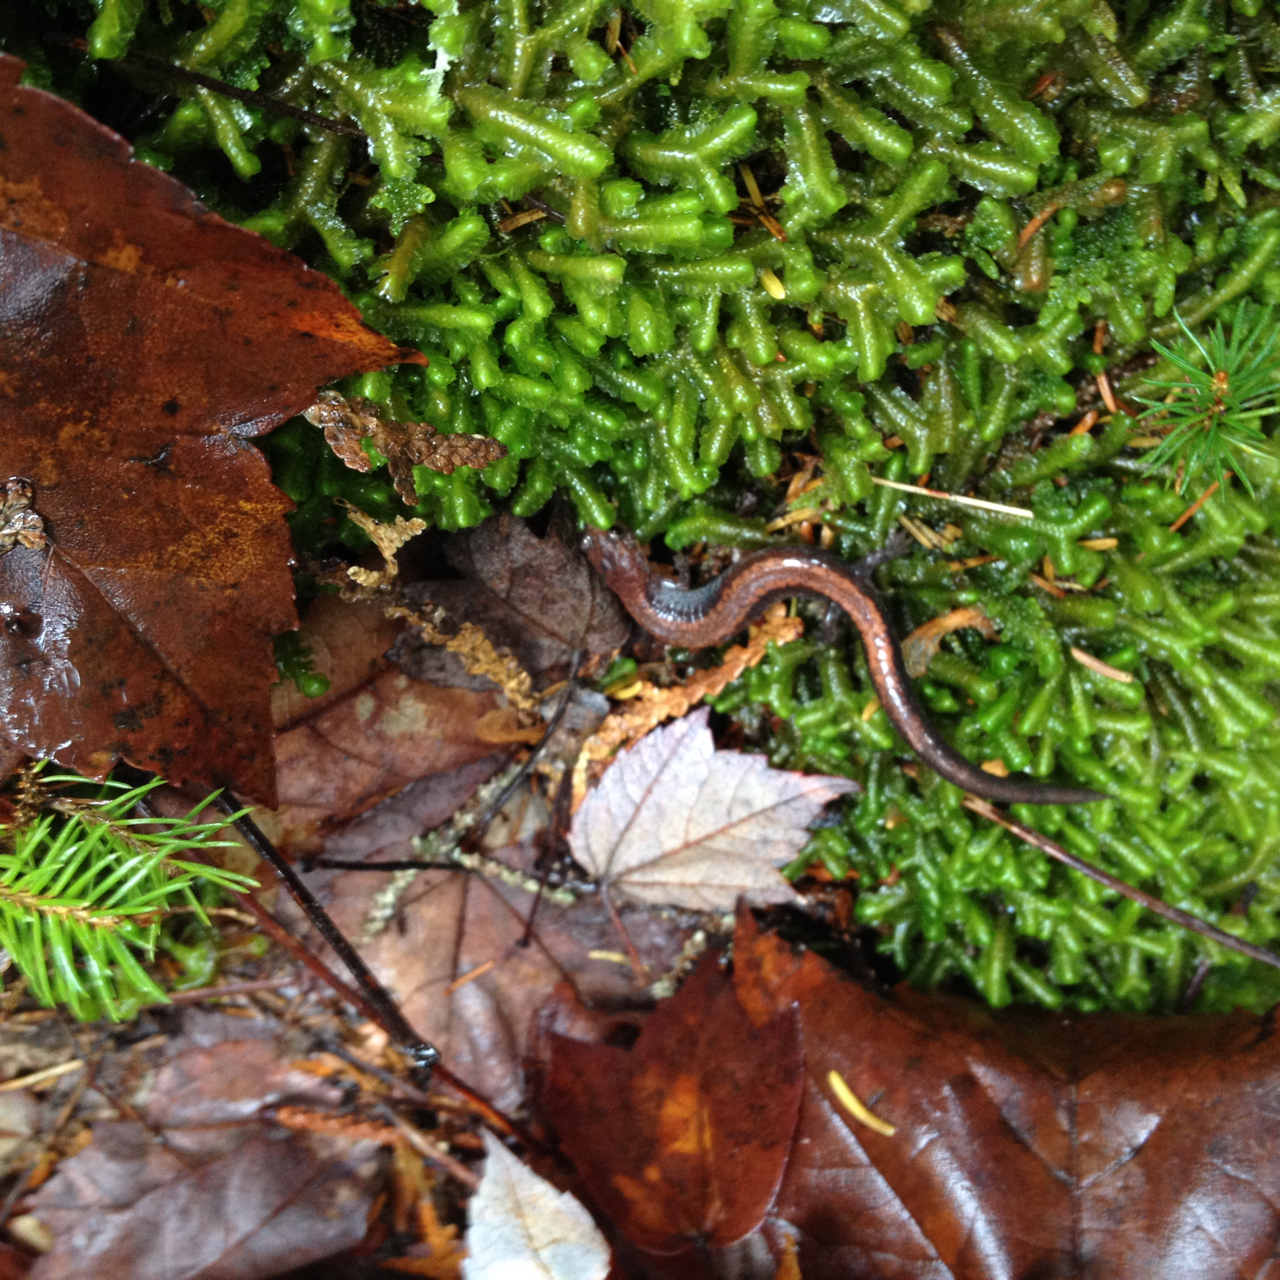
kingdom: Animalia
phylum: Chordata
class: Amphibia
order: Caudata
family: Plethodontidae
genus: Plethodon
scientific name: Plethodon cinereus
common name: Redback salamander
